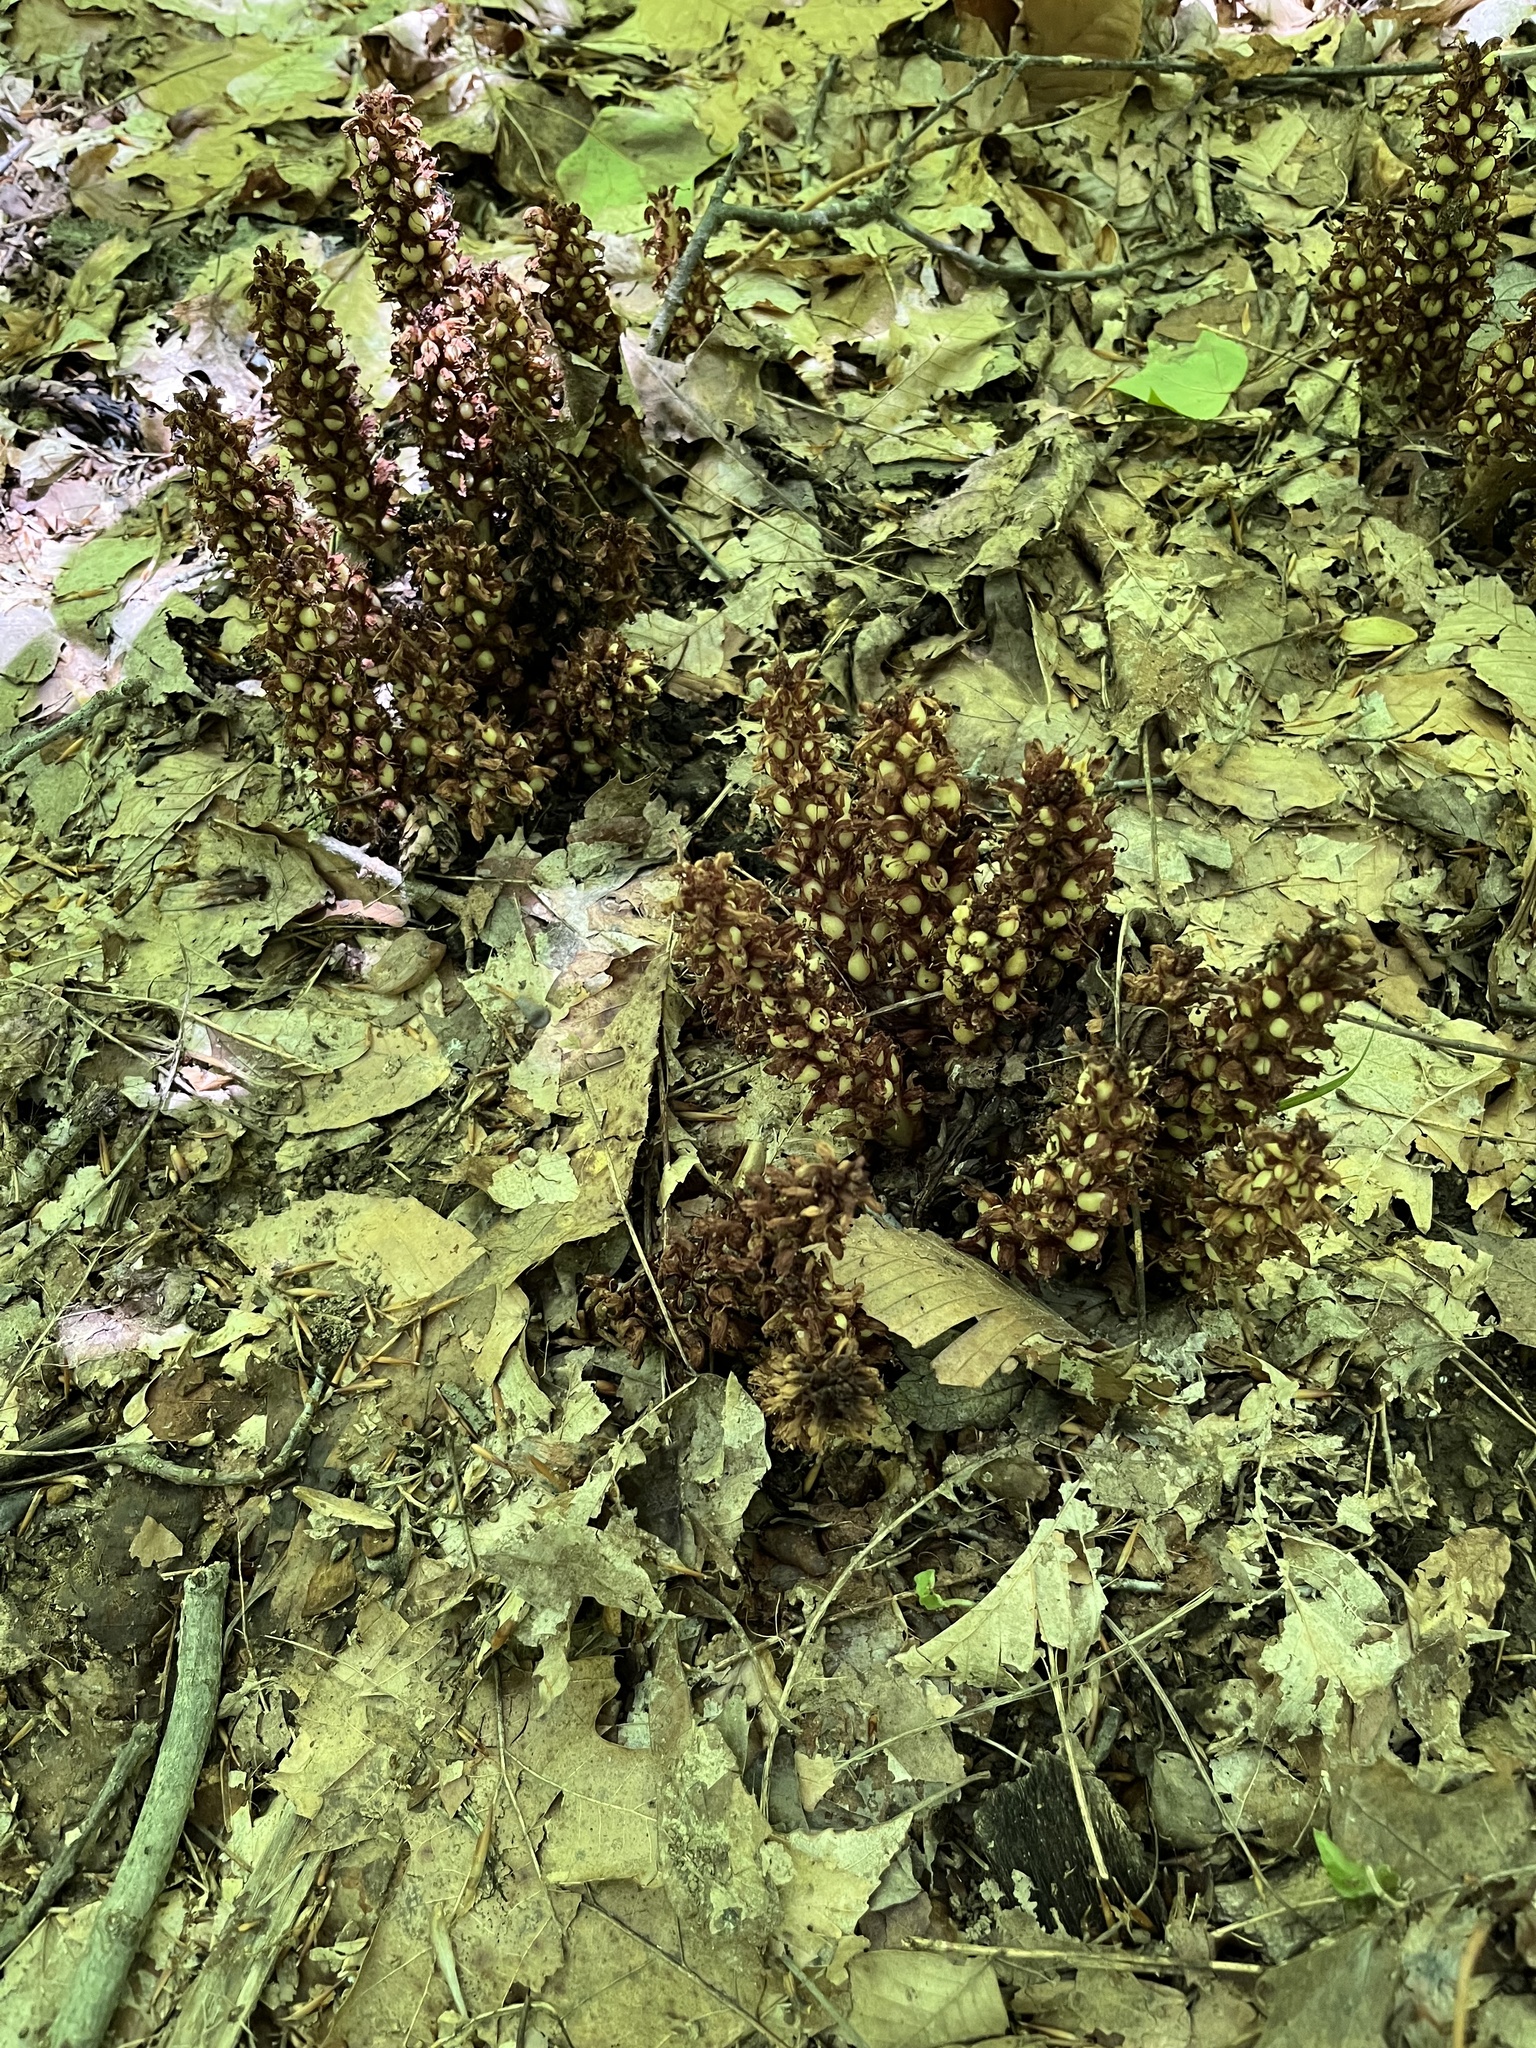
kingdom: Plantae
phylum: Tracheophyta
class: Magnoliopsida
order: Lamiales
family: Orobanchaceae
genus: Conopholis
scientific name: Conopholis americana
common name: American cancer-root
